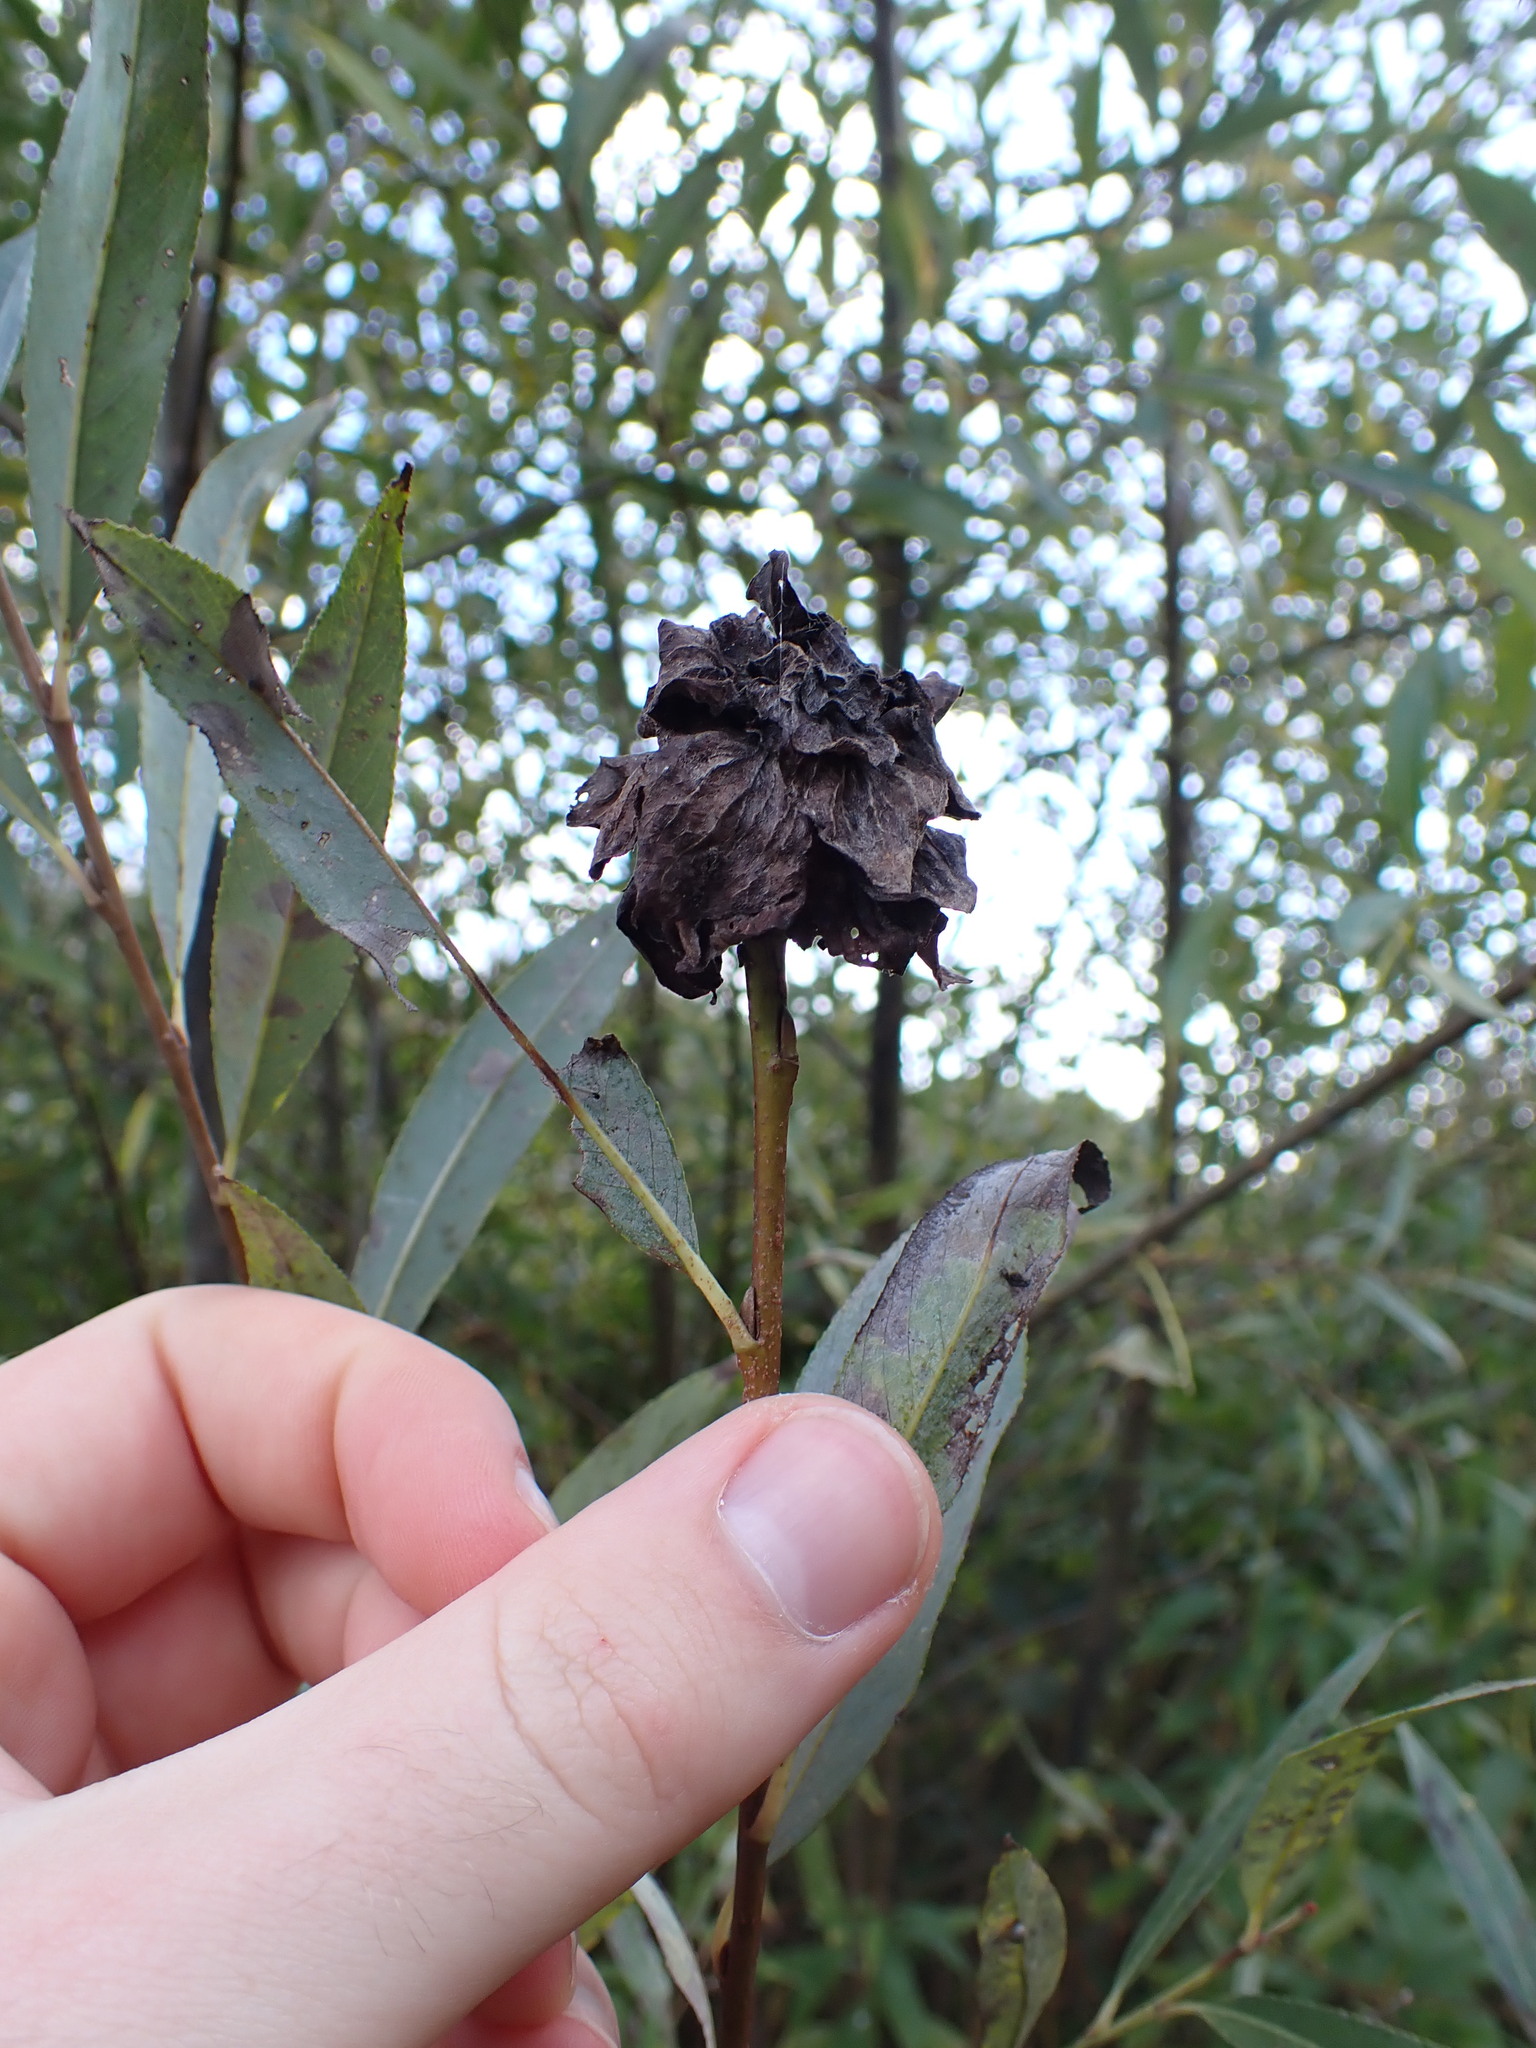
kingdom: Animalia
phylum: Arthropoda
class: Insecta
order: Diptera
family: Cecidomyiidae
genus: Rabdophaga
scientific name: Rabdophaga rosaria
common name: Willow rose gall midge
